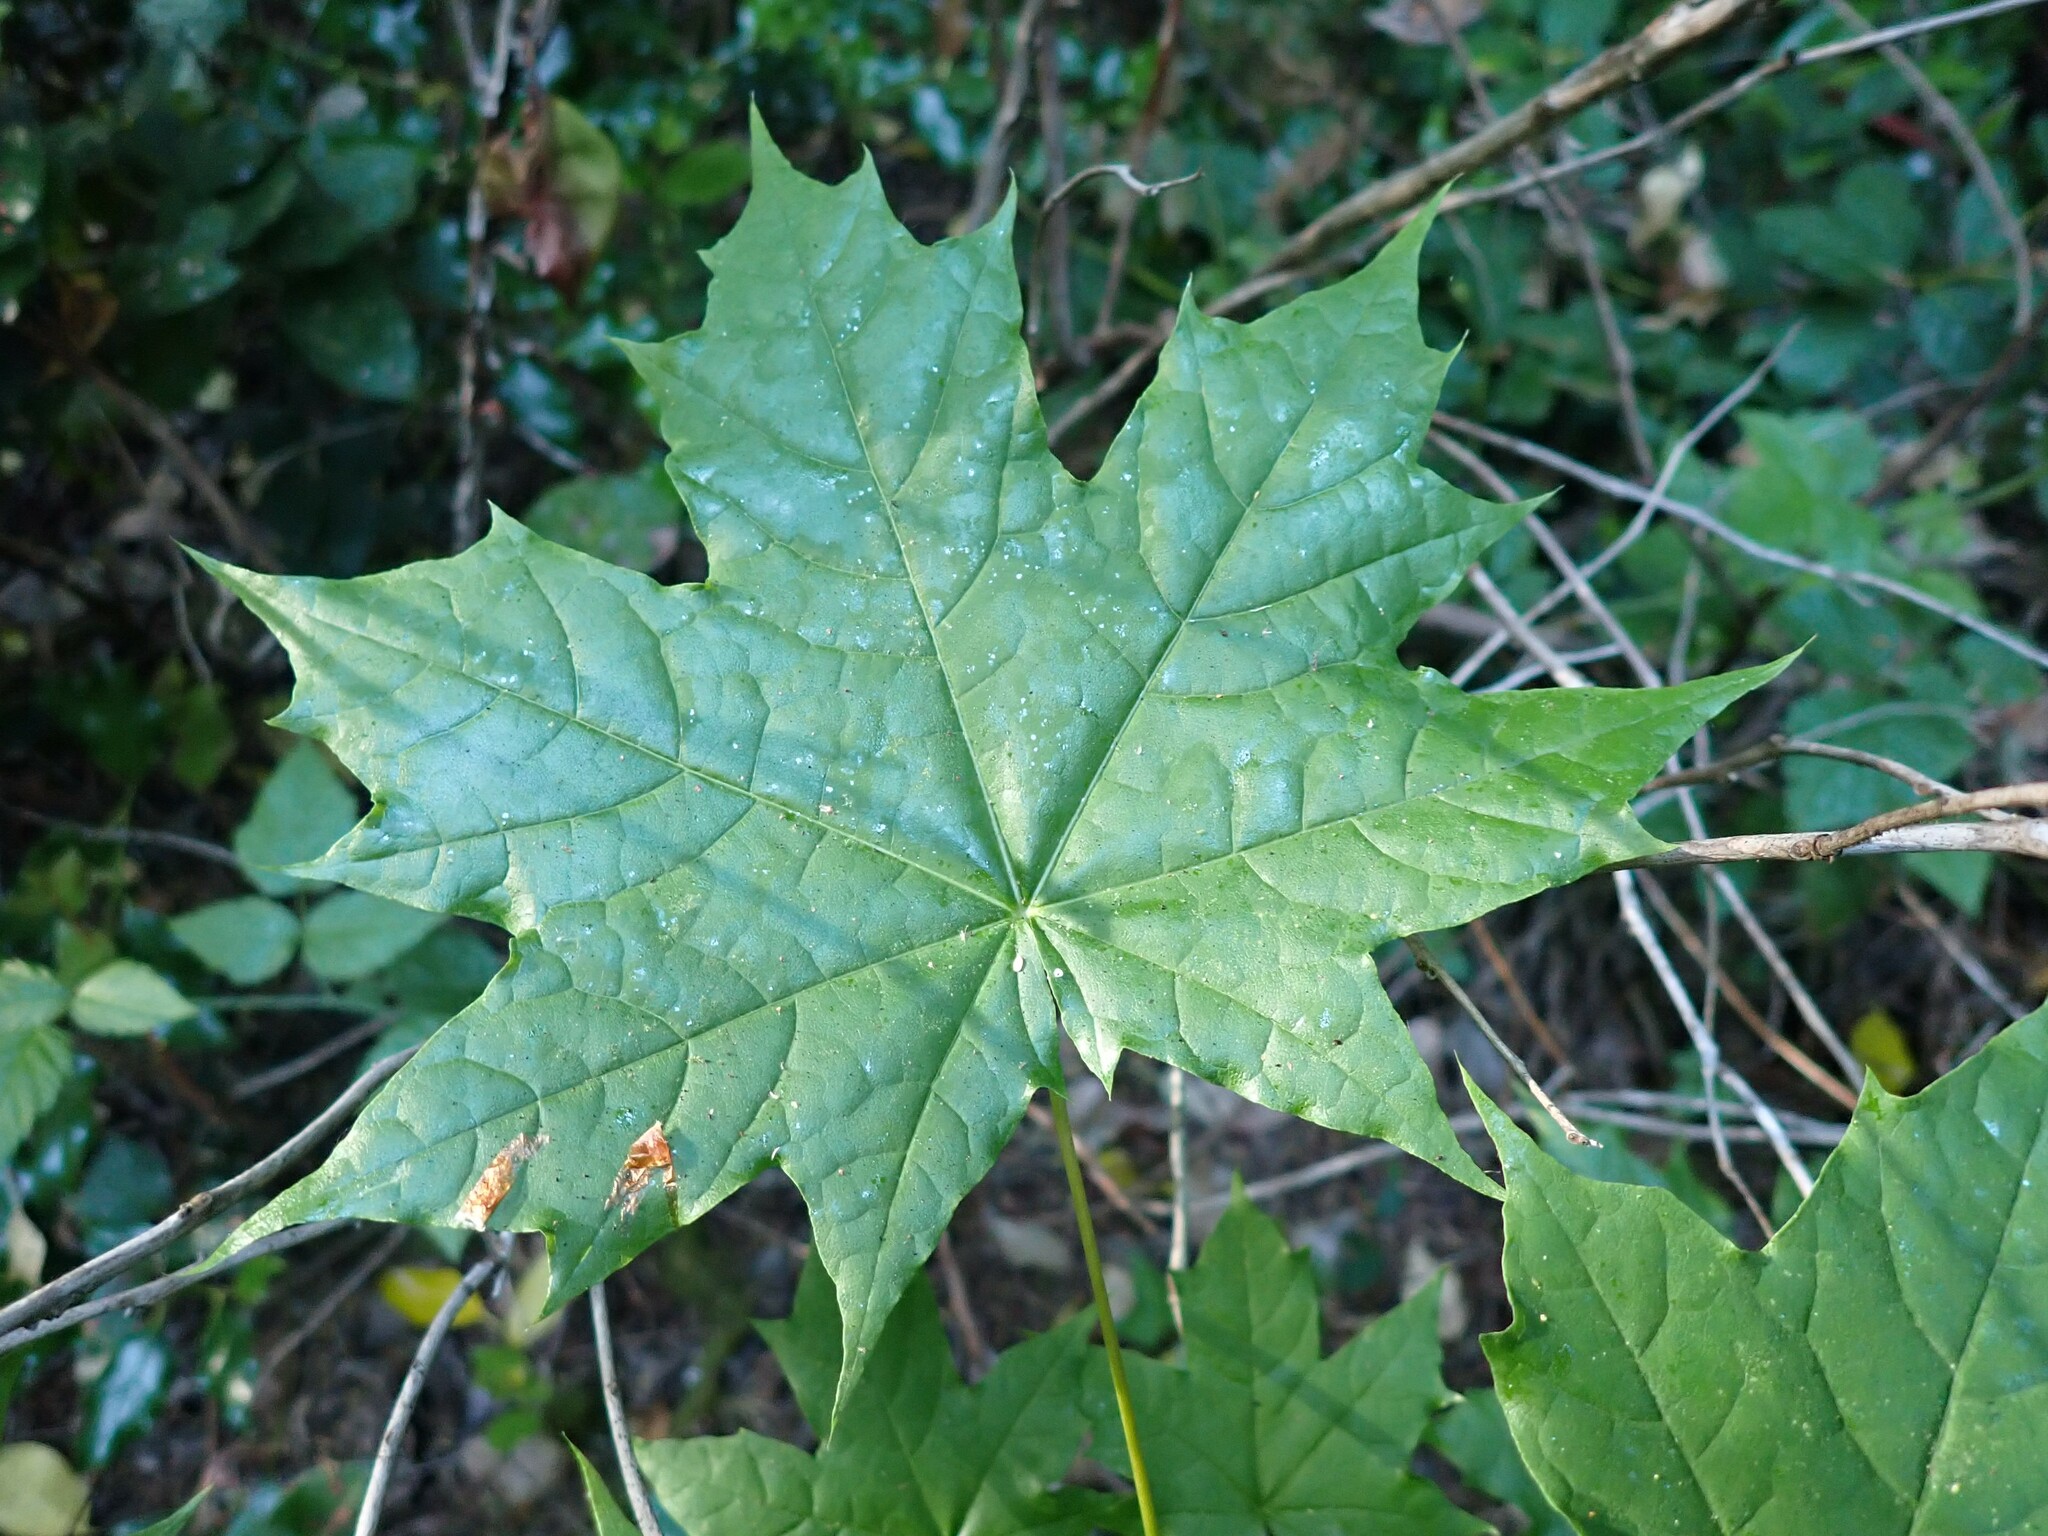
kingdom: Plantae
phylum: Tracheophyta
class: Magnoliopsida
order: Sapindales
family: Sapindaceae
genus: Acer
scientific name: Acer platanoides
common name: Norway maple
